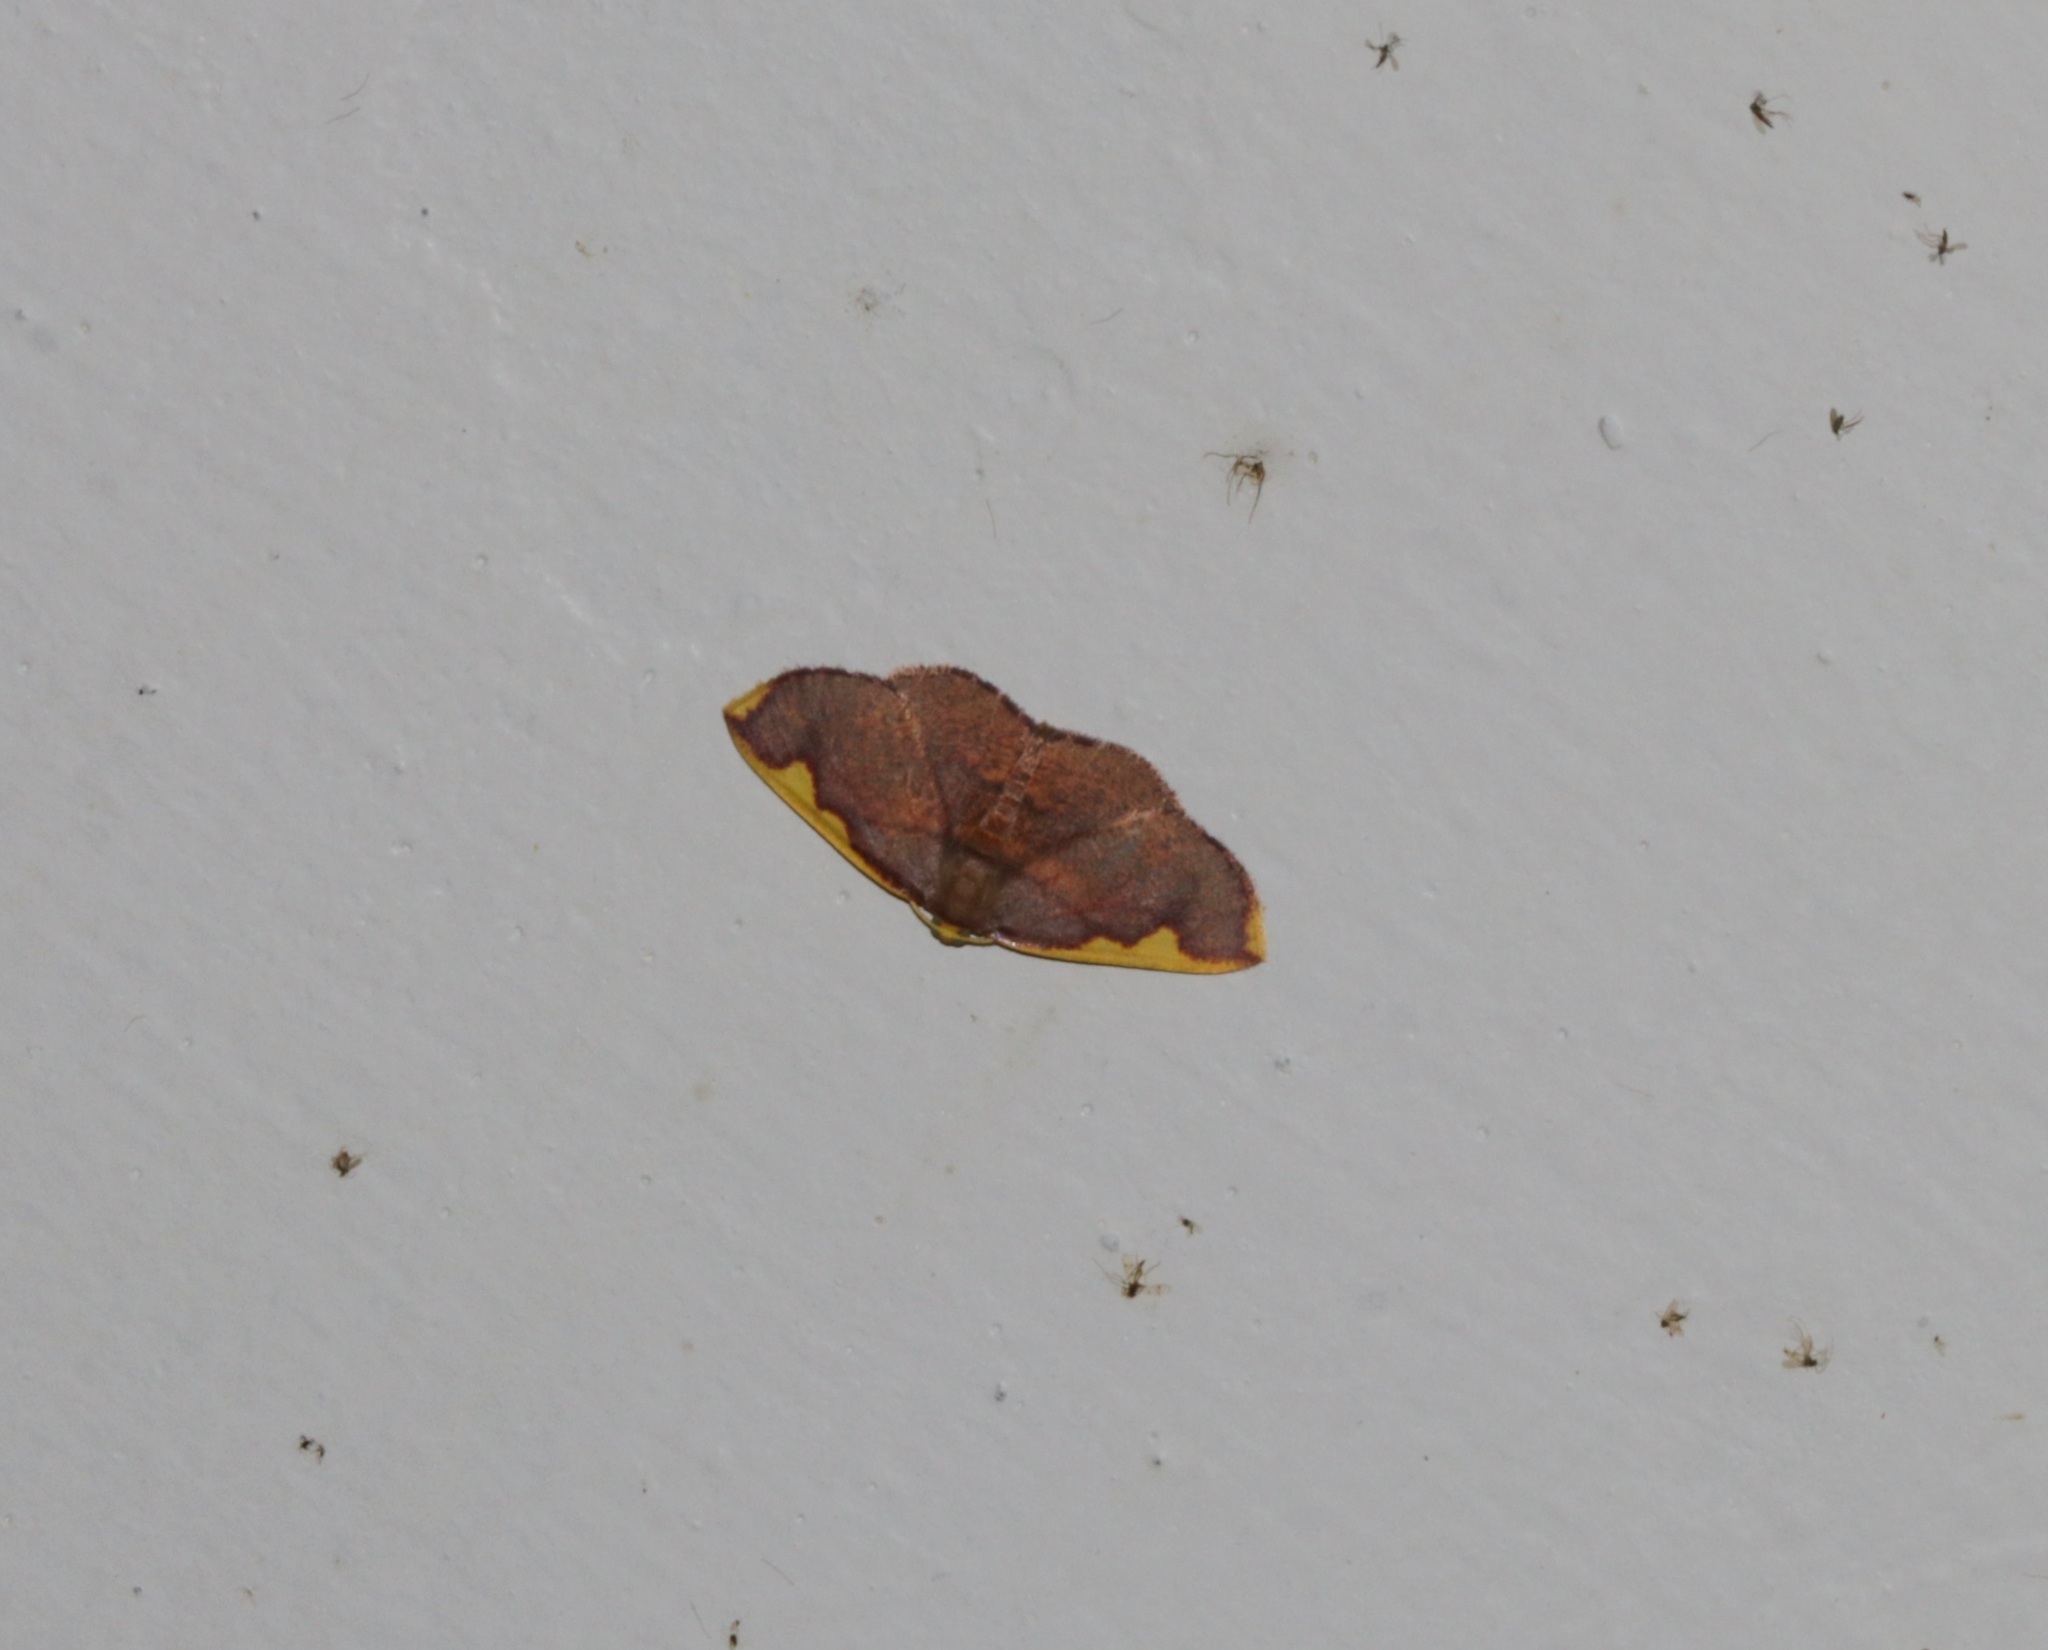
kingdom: Animalia
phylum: Arthropoda
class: Insecta
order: Lepidoptera
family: Geometridae
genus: Nothomiza
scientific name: Nothomiza flavicosta
